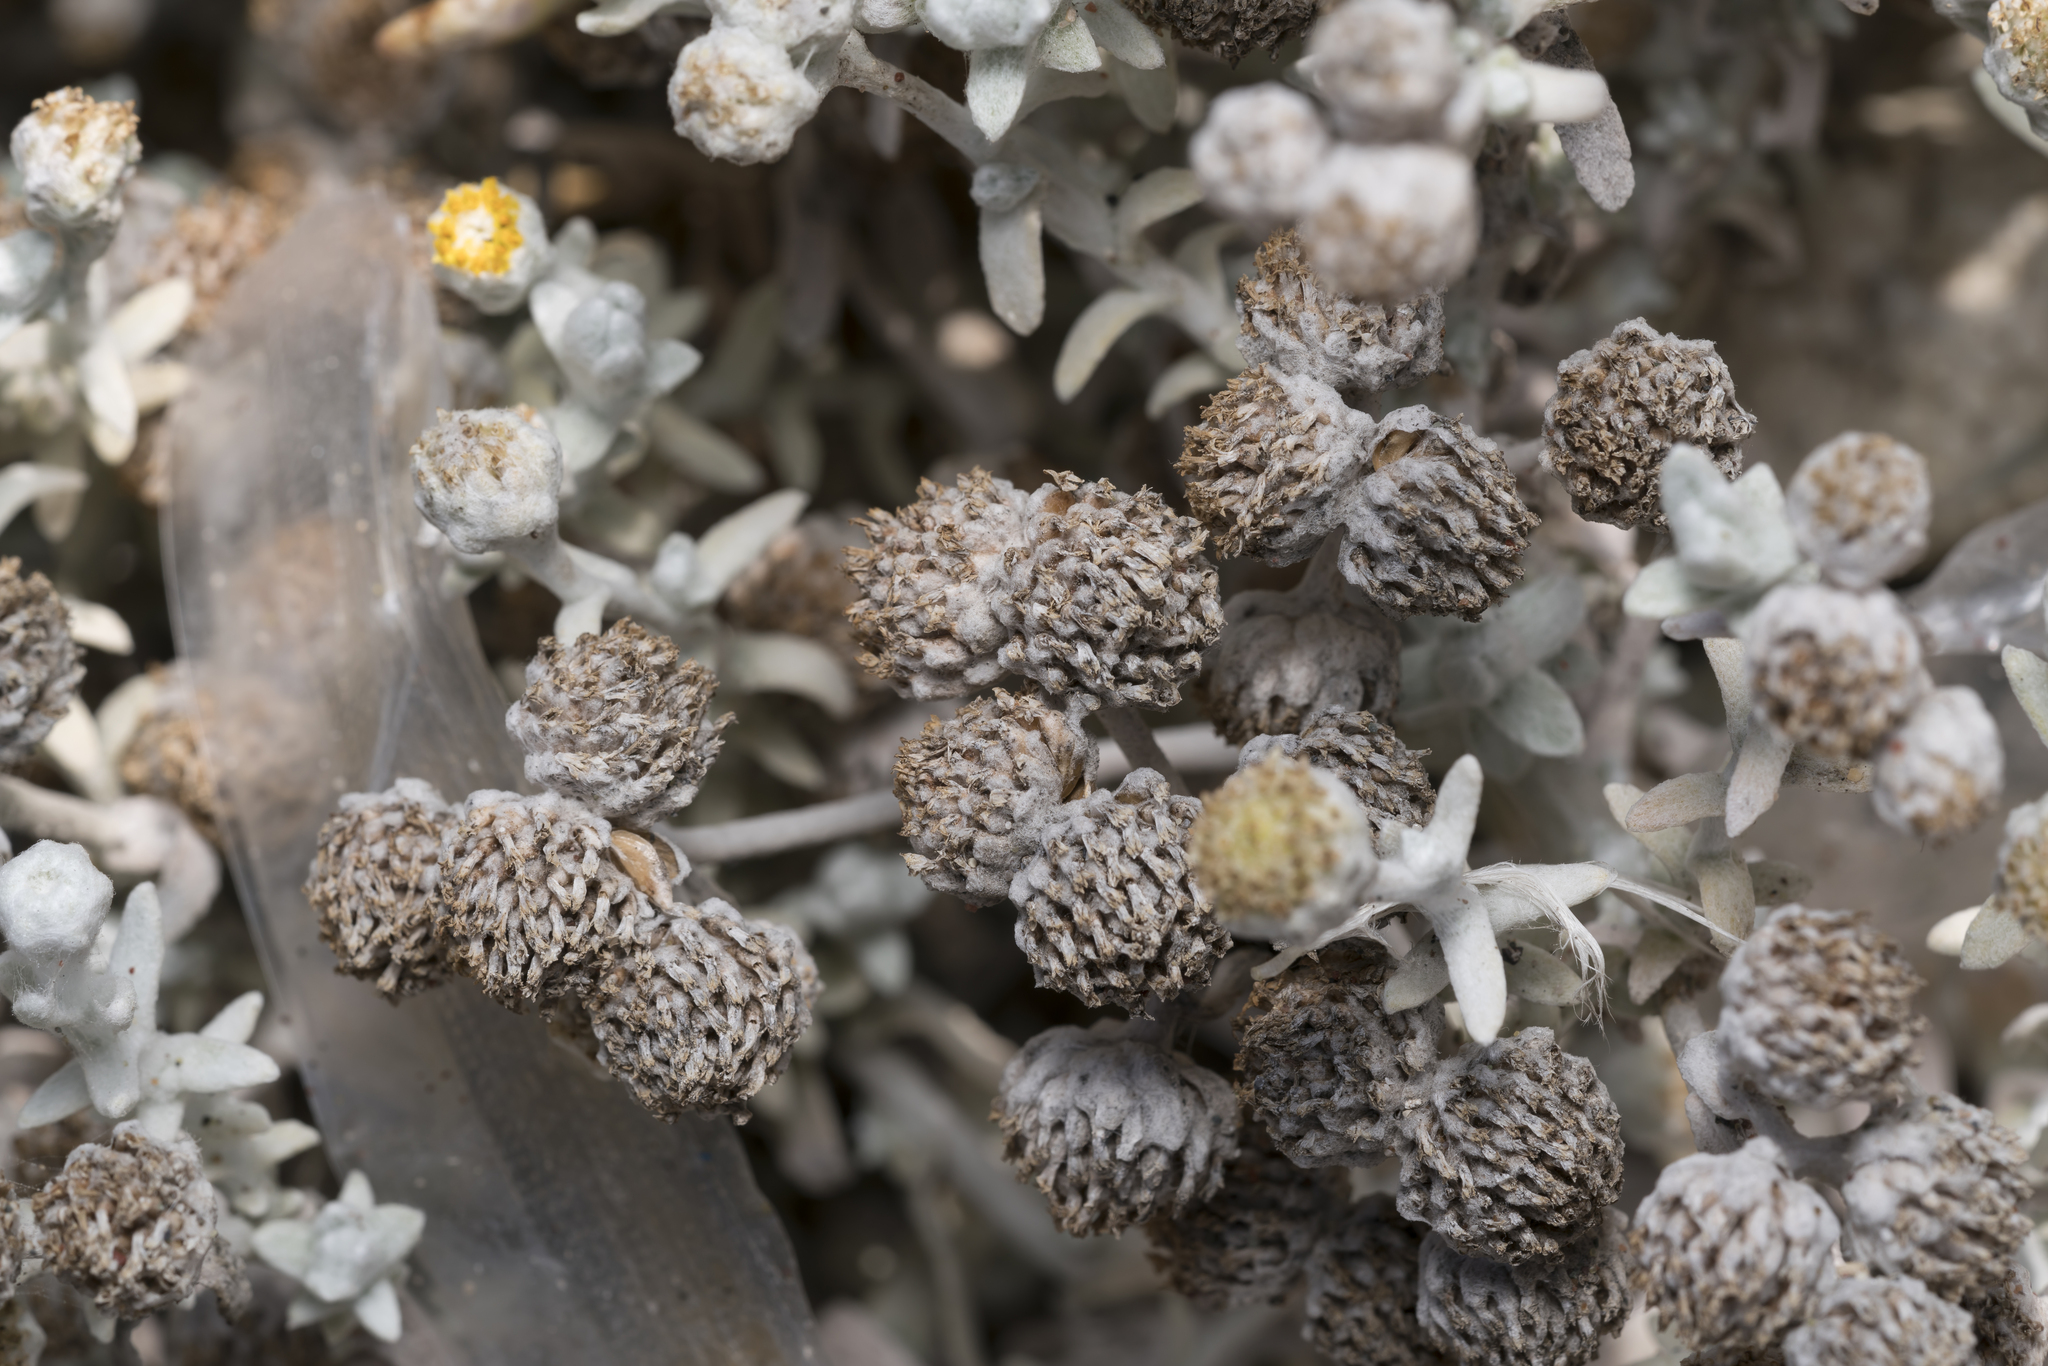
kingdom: Plantae
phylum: Tracheophyta
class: Magnoliopsida
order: Asterales
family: Asteraceae
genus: Achillea
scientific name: Achillea maritima
